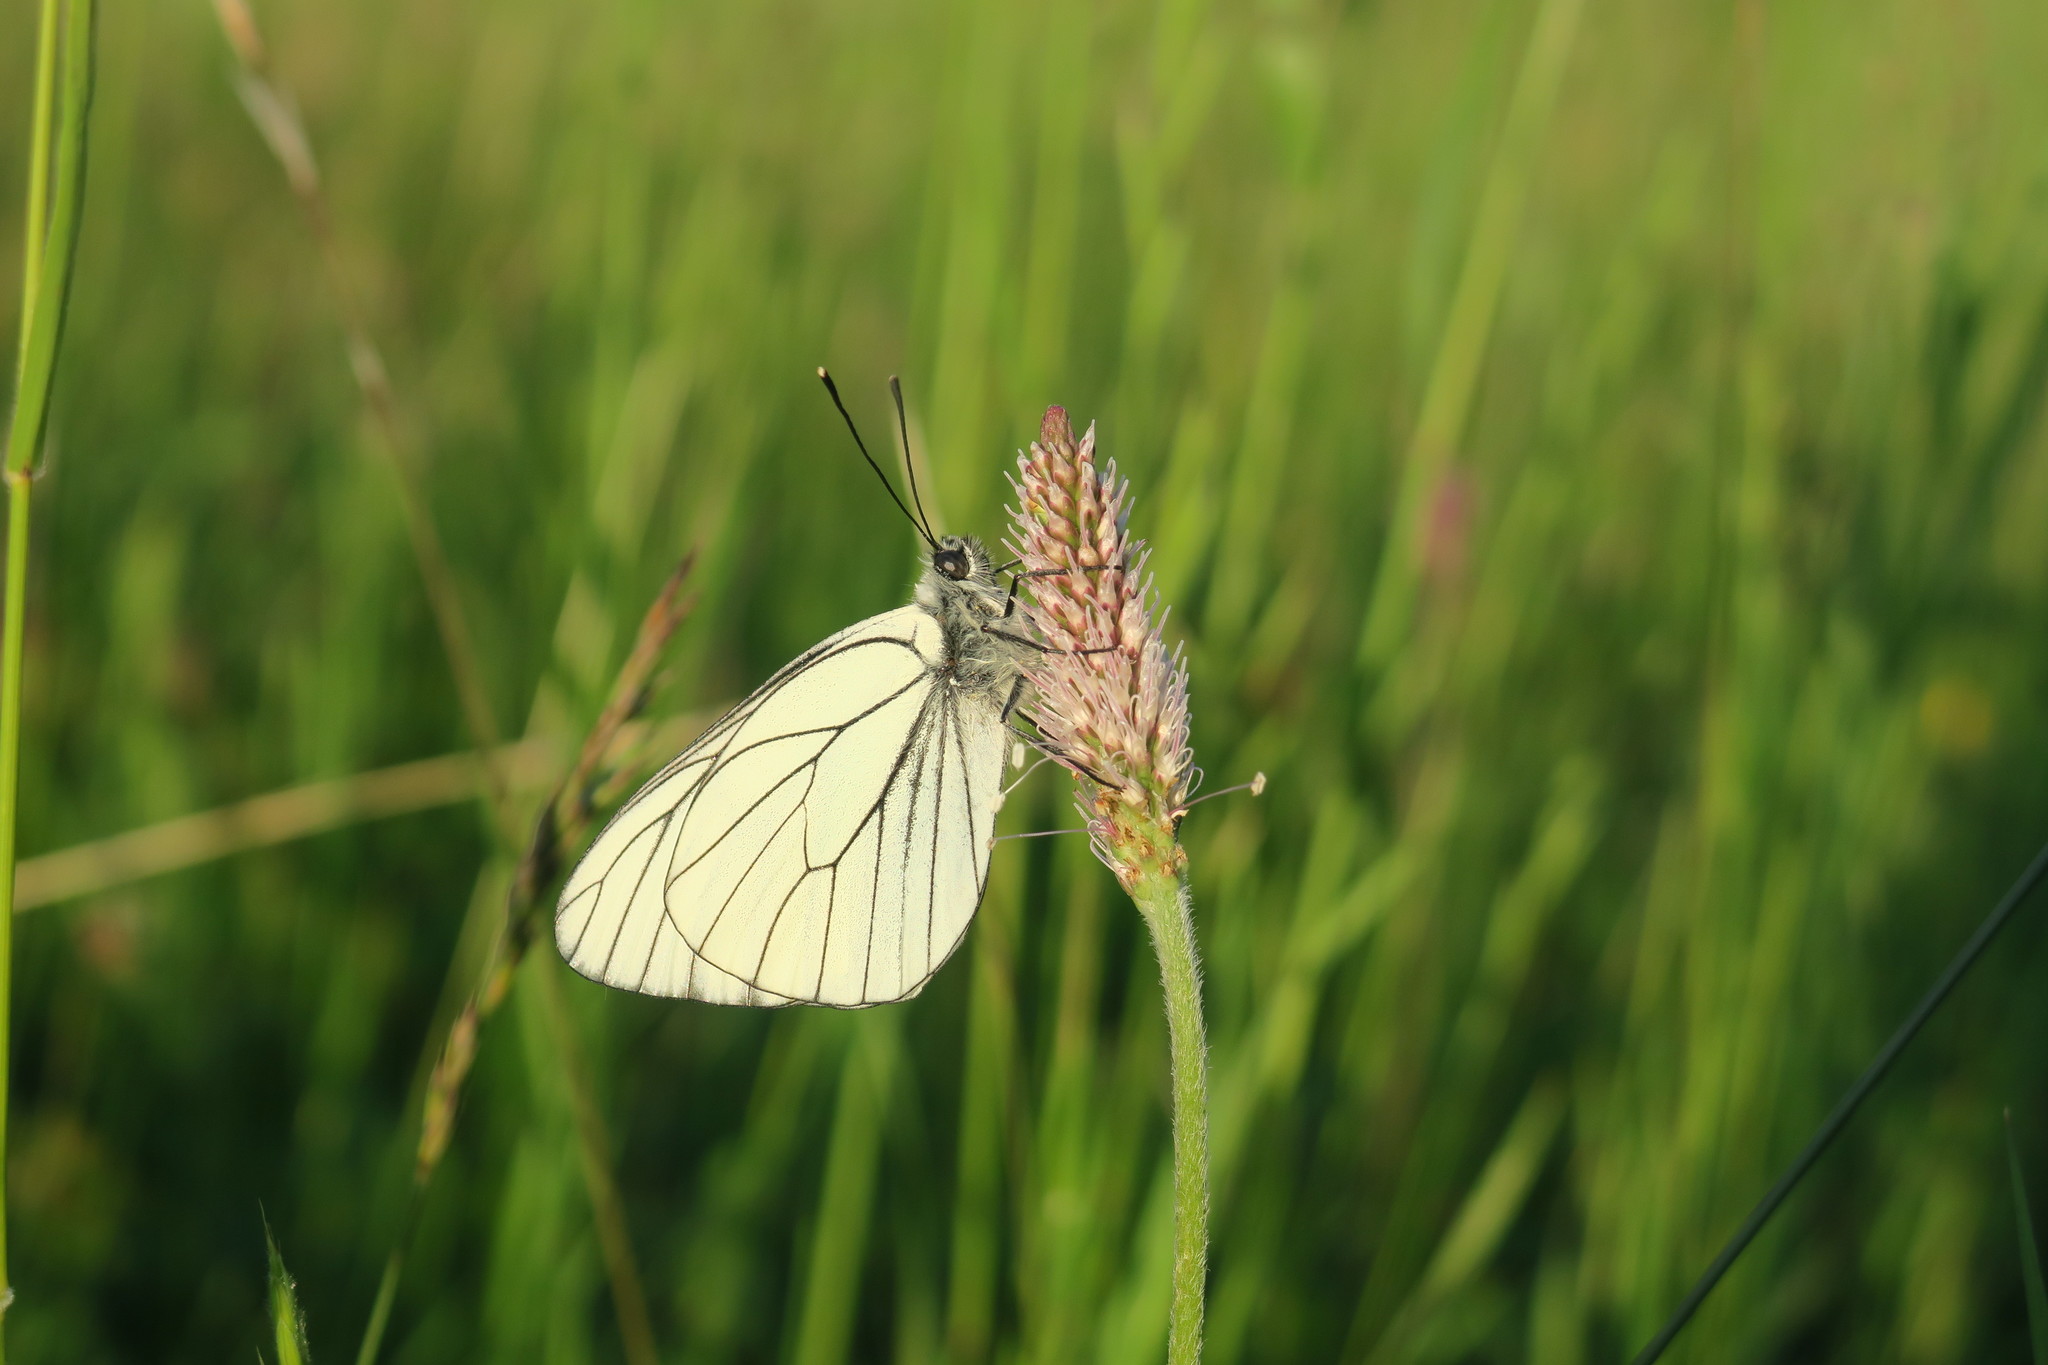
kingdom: Animalia
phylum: Arthropoda
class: Insecta
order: Lepidoptera
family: Pieridae
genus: Aporia
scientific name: Aporia crataegi
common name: Black-veined white
